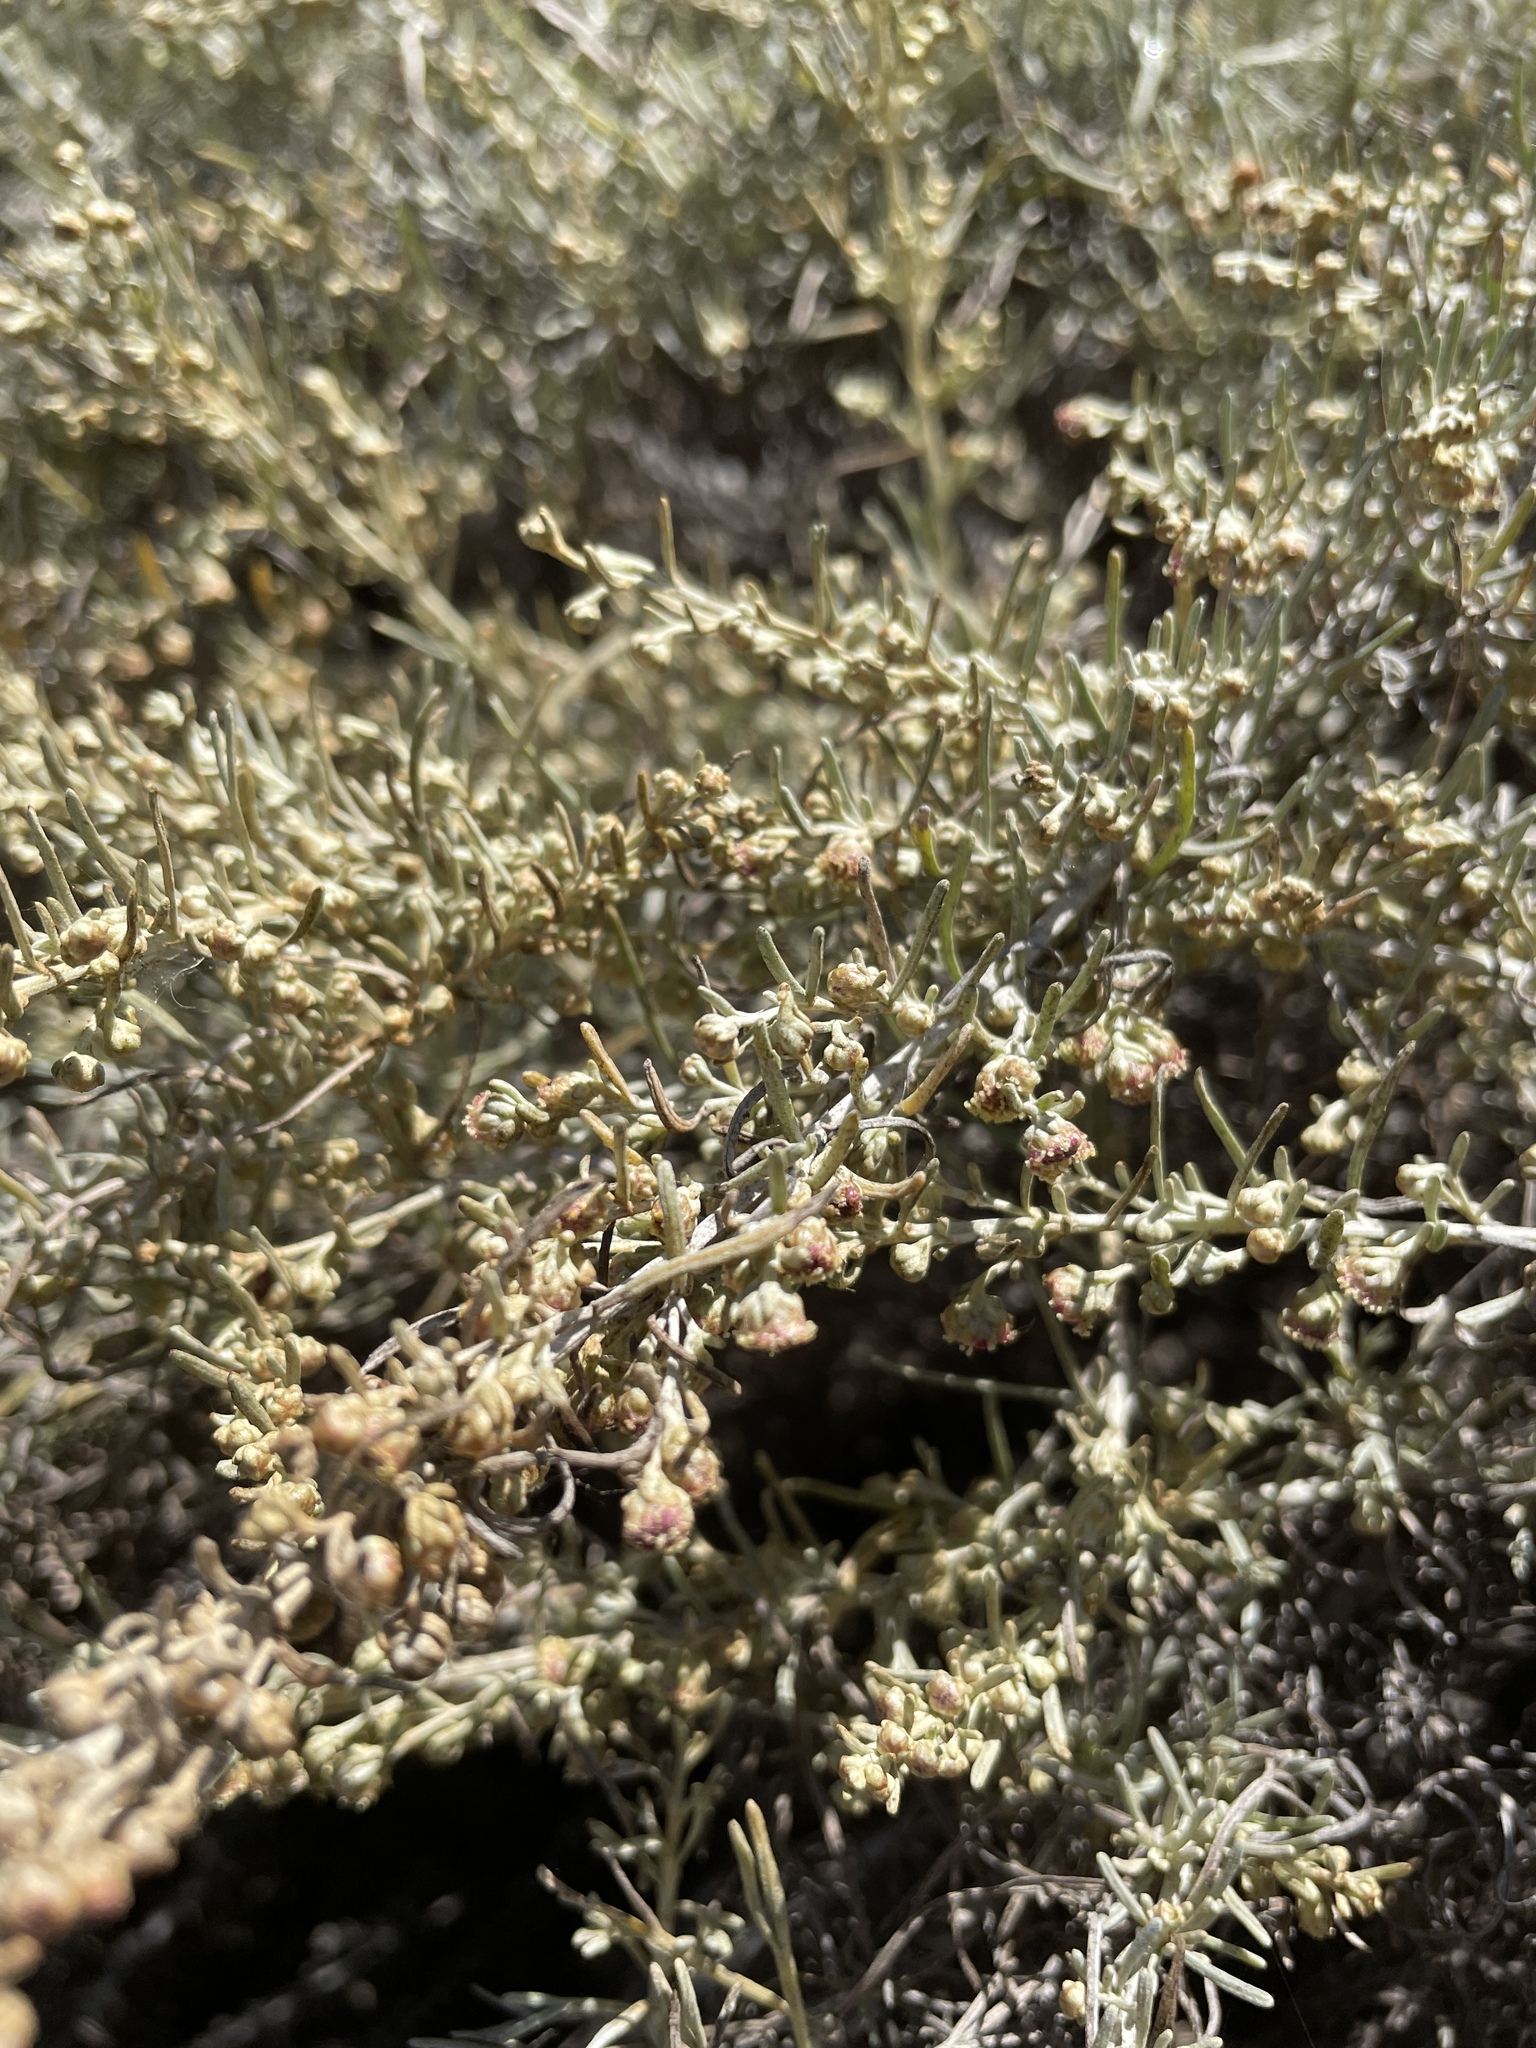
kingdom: Plantae
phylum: Tracheophyta
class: Magnoliopsida
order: Asterales
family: Asteraceae
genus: Artemisia
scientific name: Artemisia californica
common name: California sagebrush
